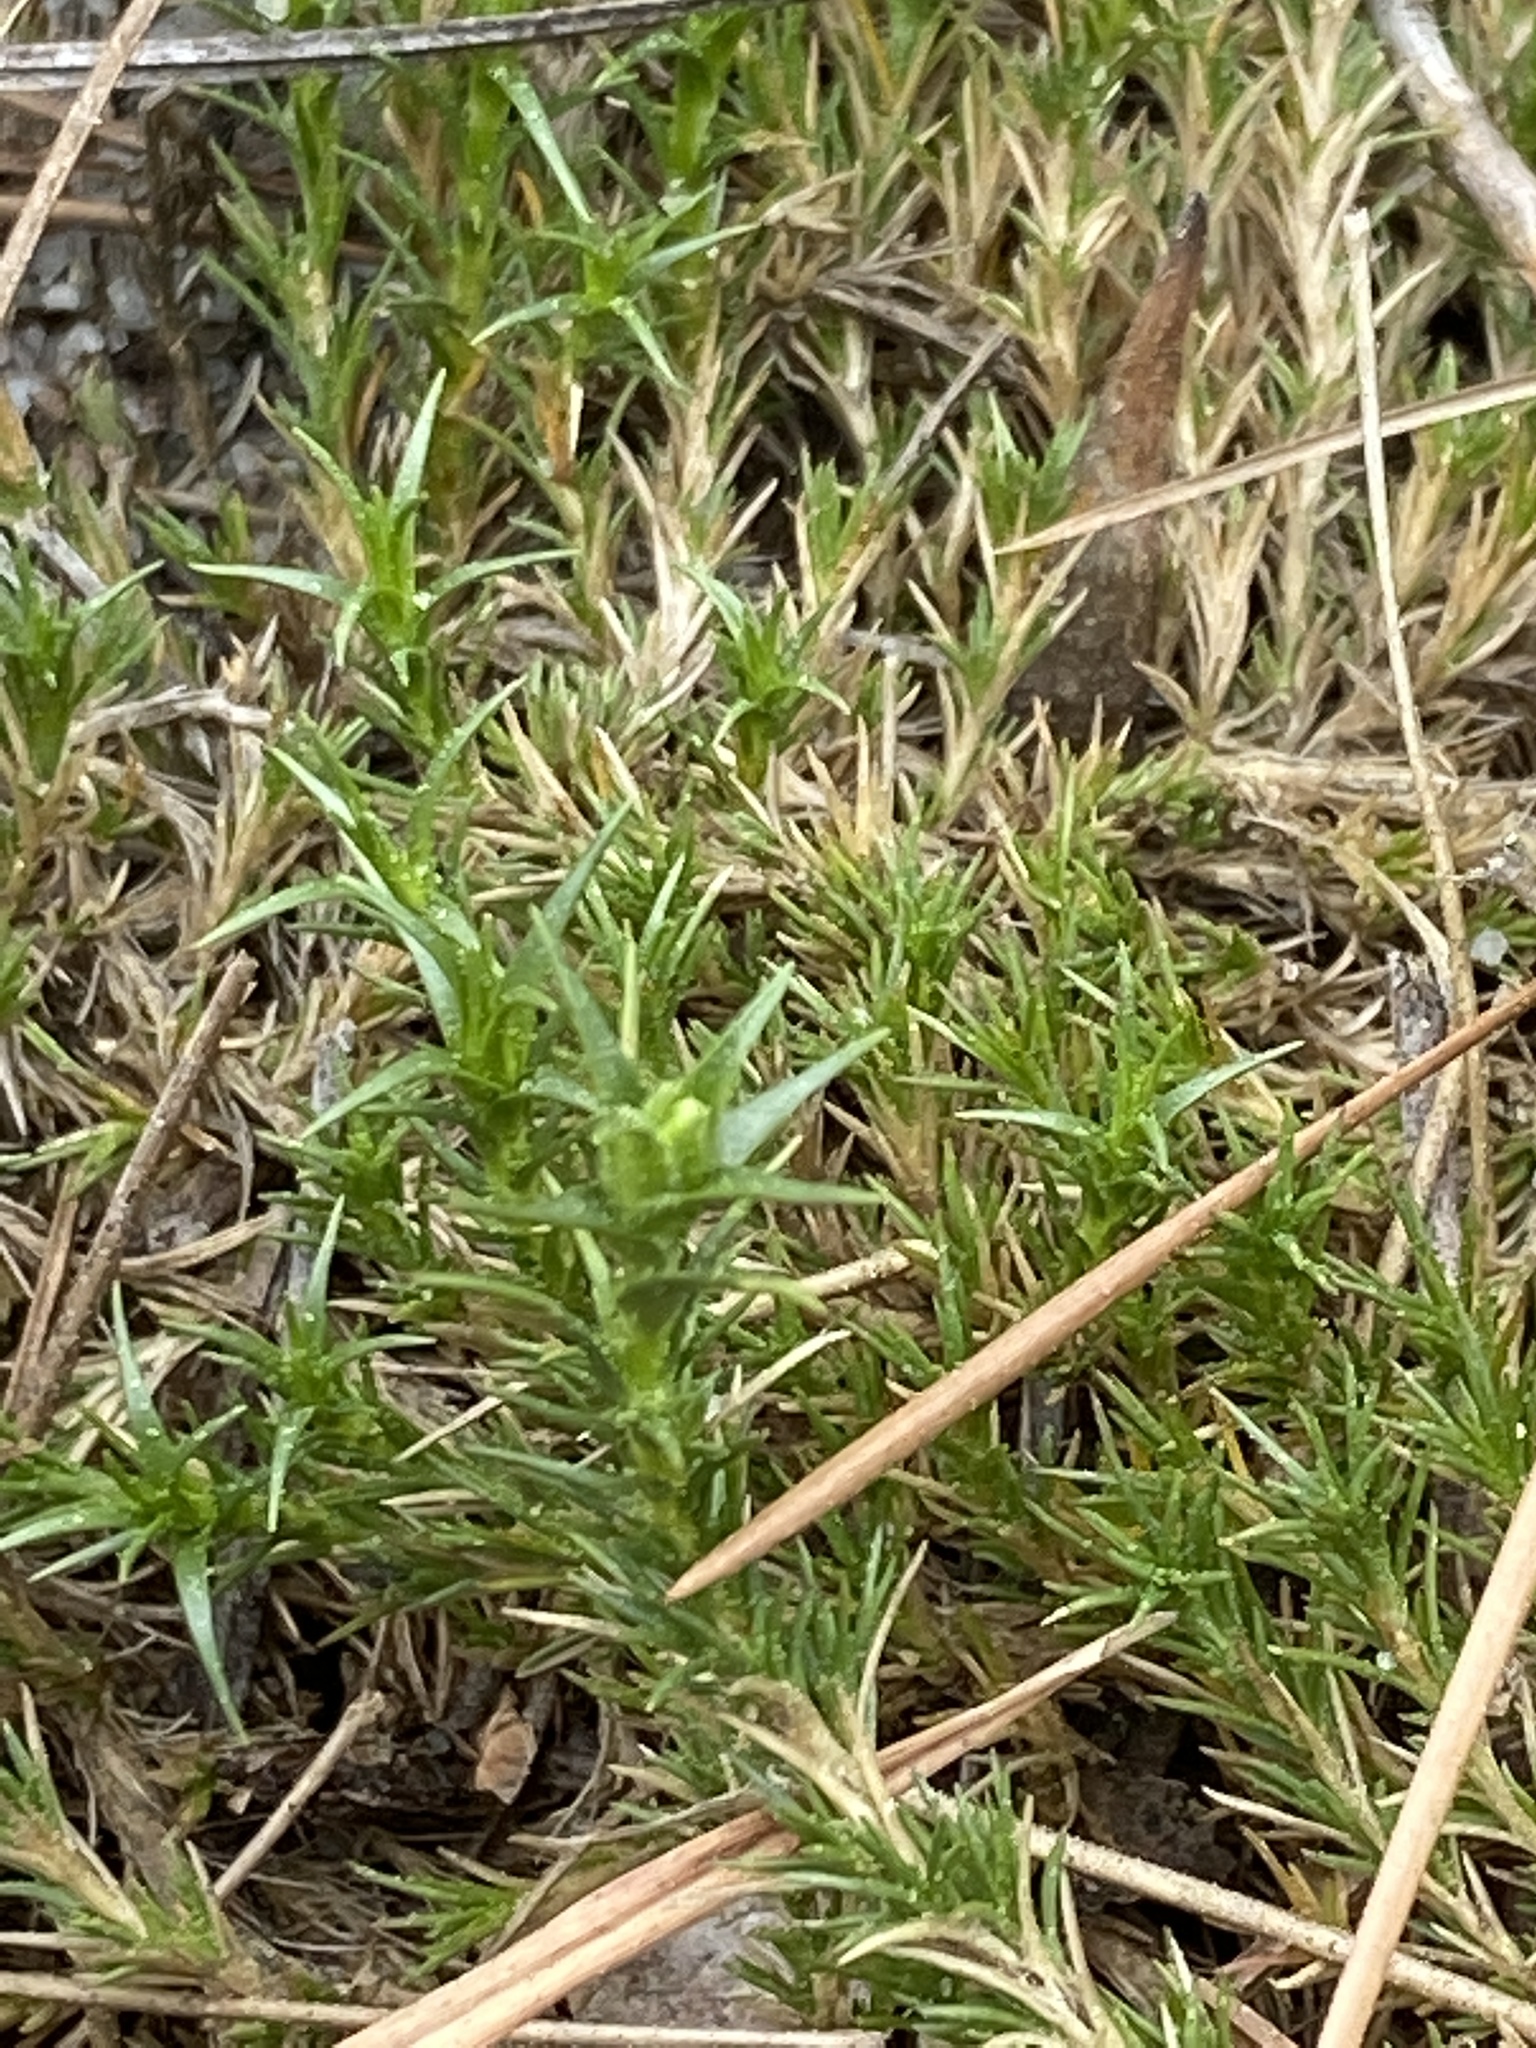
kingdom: Plantae
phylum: Tracheophyta
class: Magnoliopsida
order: Caryophyllales
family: Caryophyllaceae
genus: Geocarpon
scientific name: Geocarpon carolinianum
